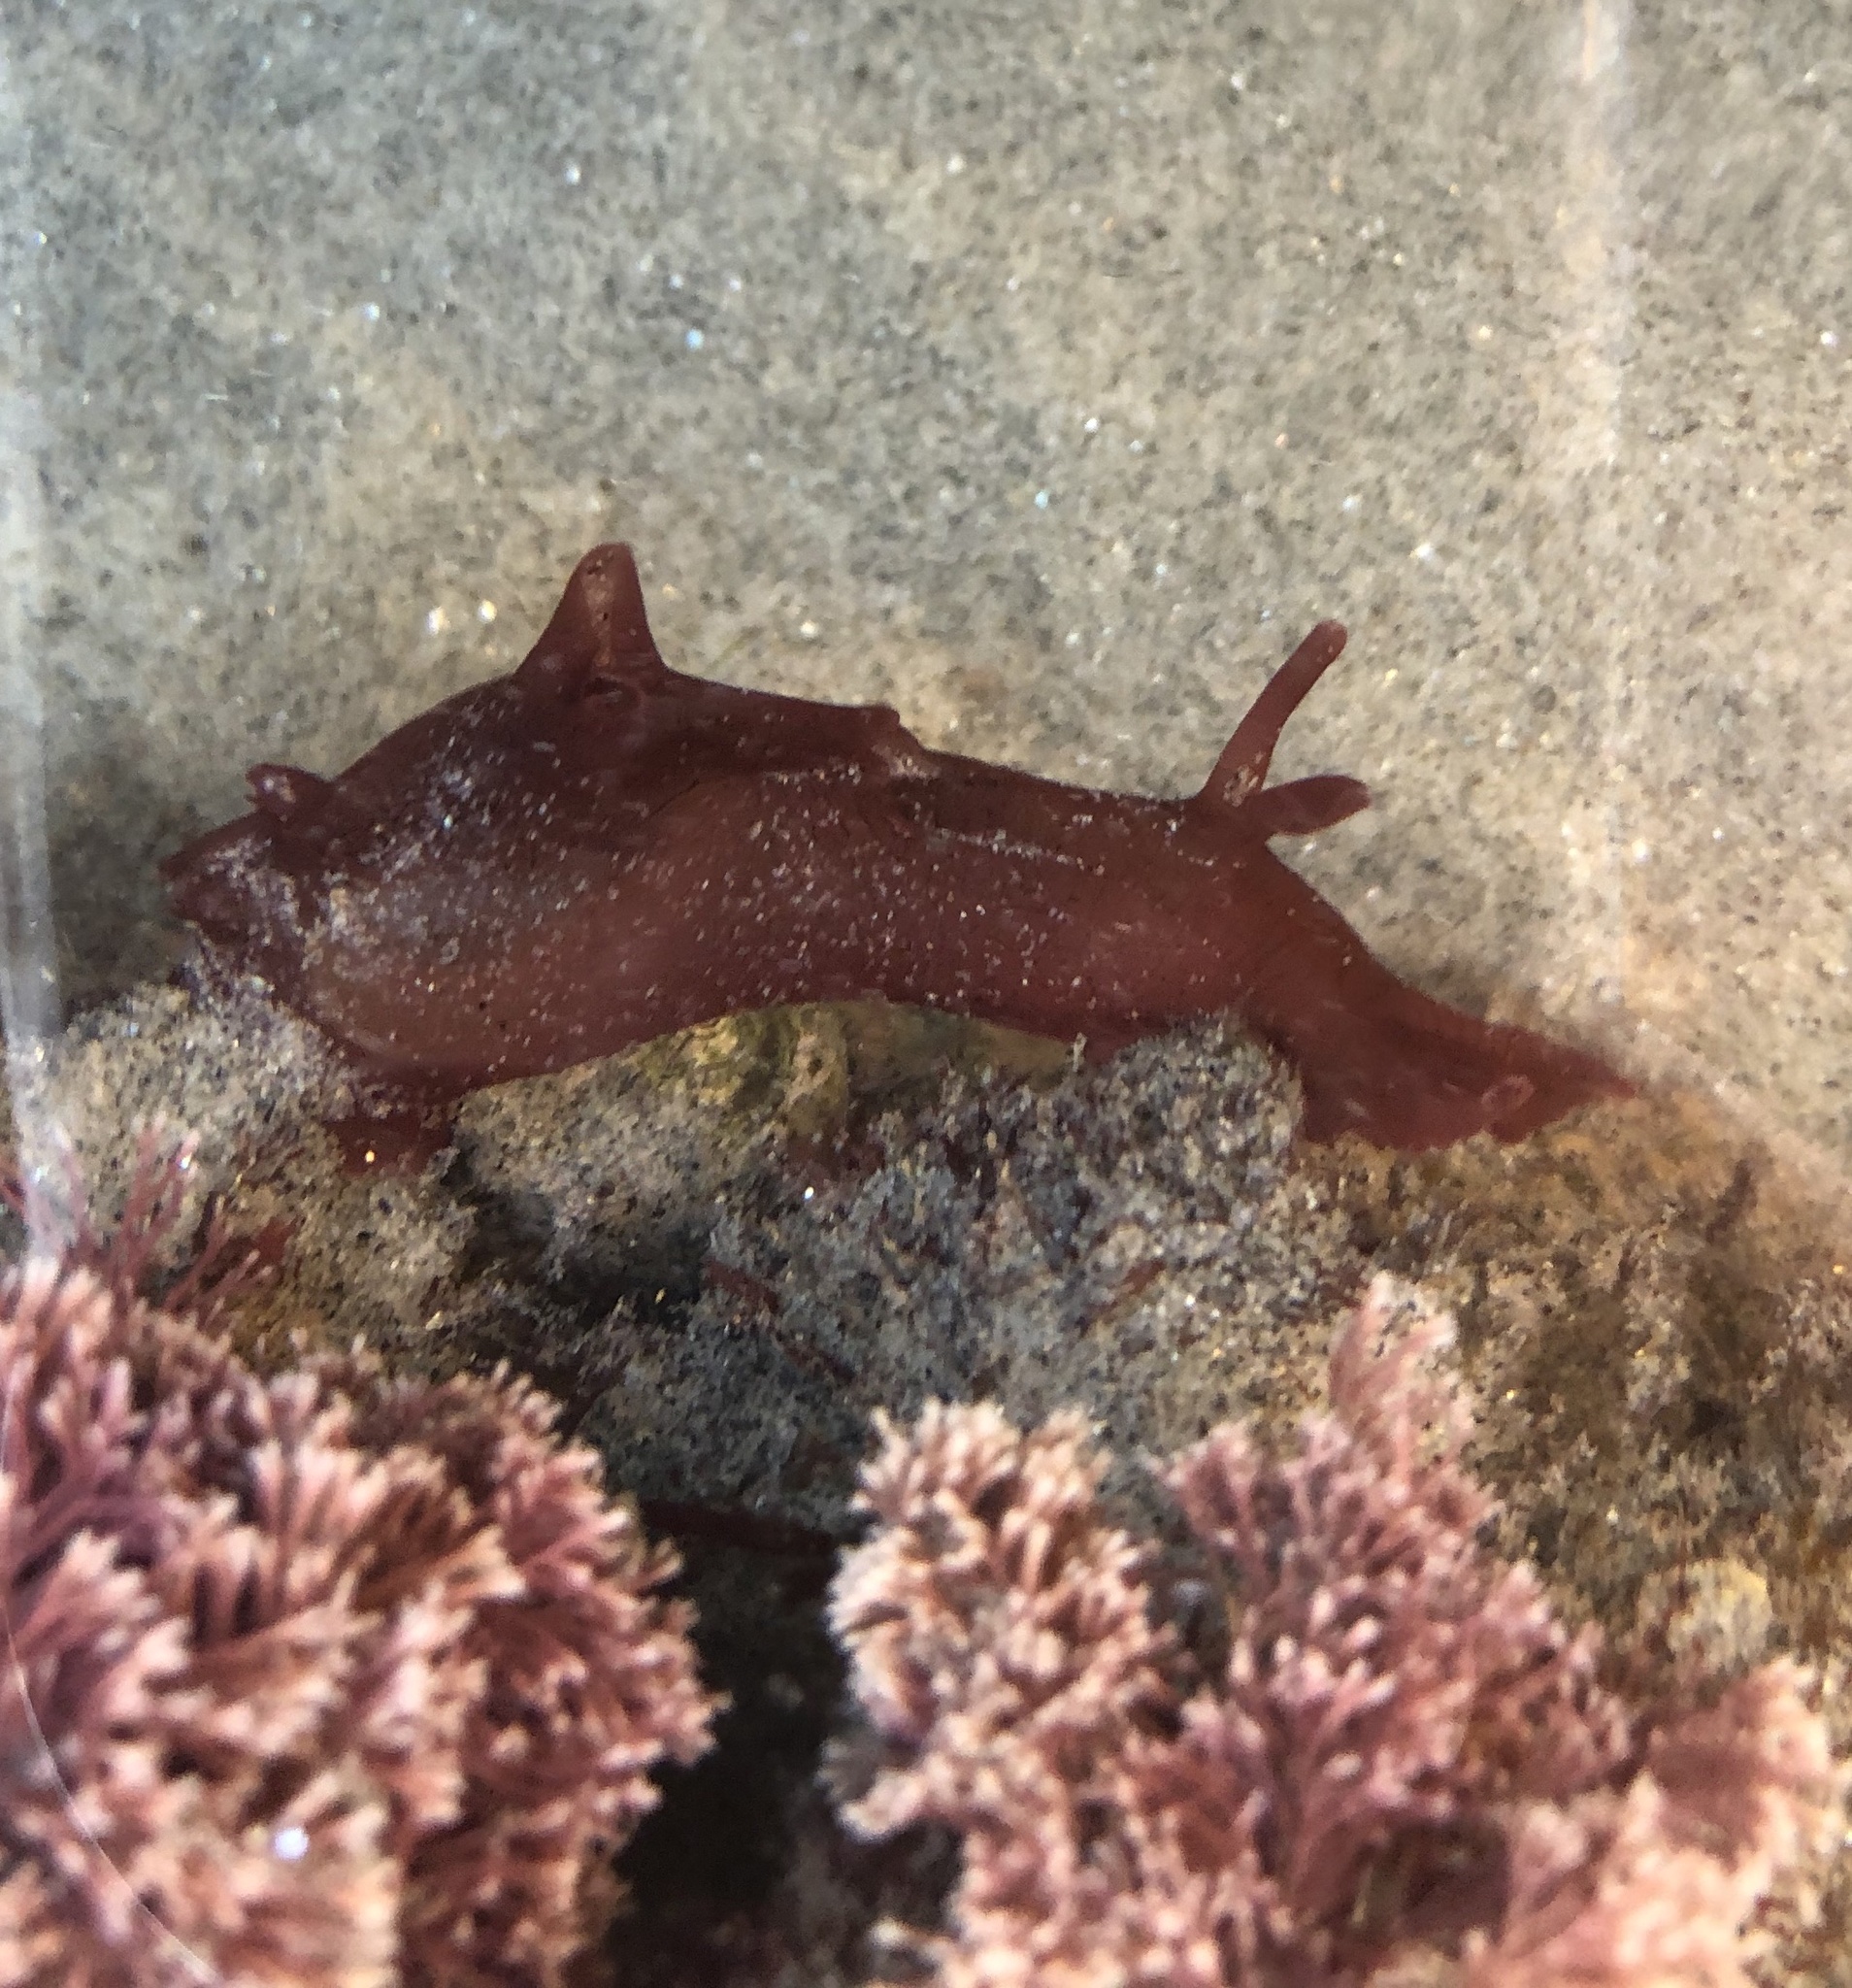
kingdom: Animalia
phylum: Mollusca
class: Gastropoda
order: Aplysiida
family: Aplysiidae
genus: Aplysia
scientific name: Aplysia californica
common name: California seahare
